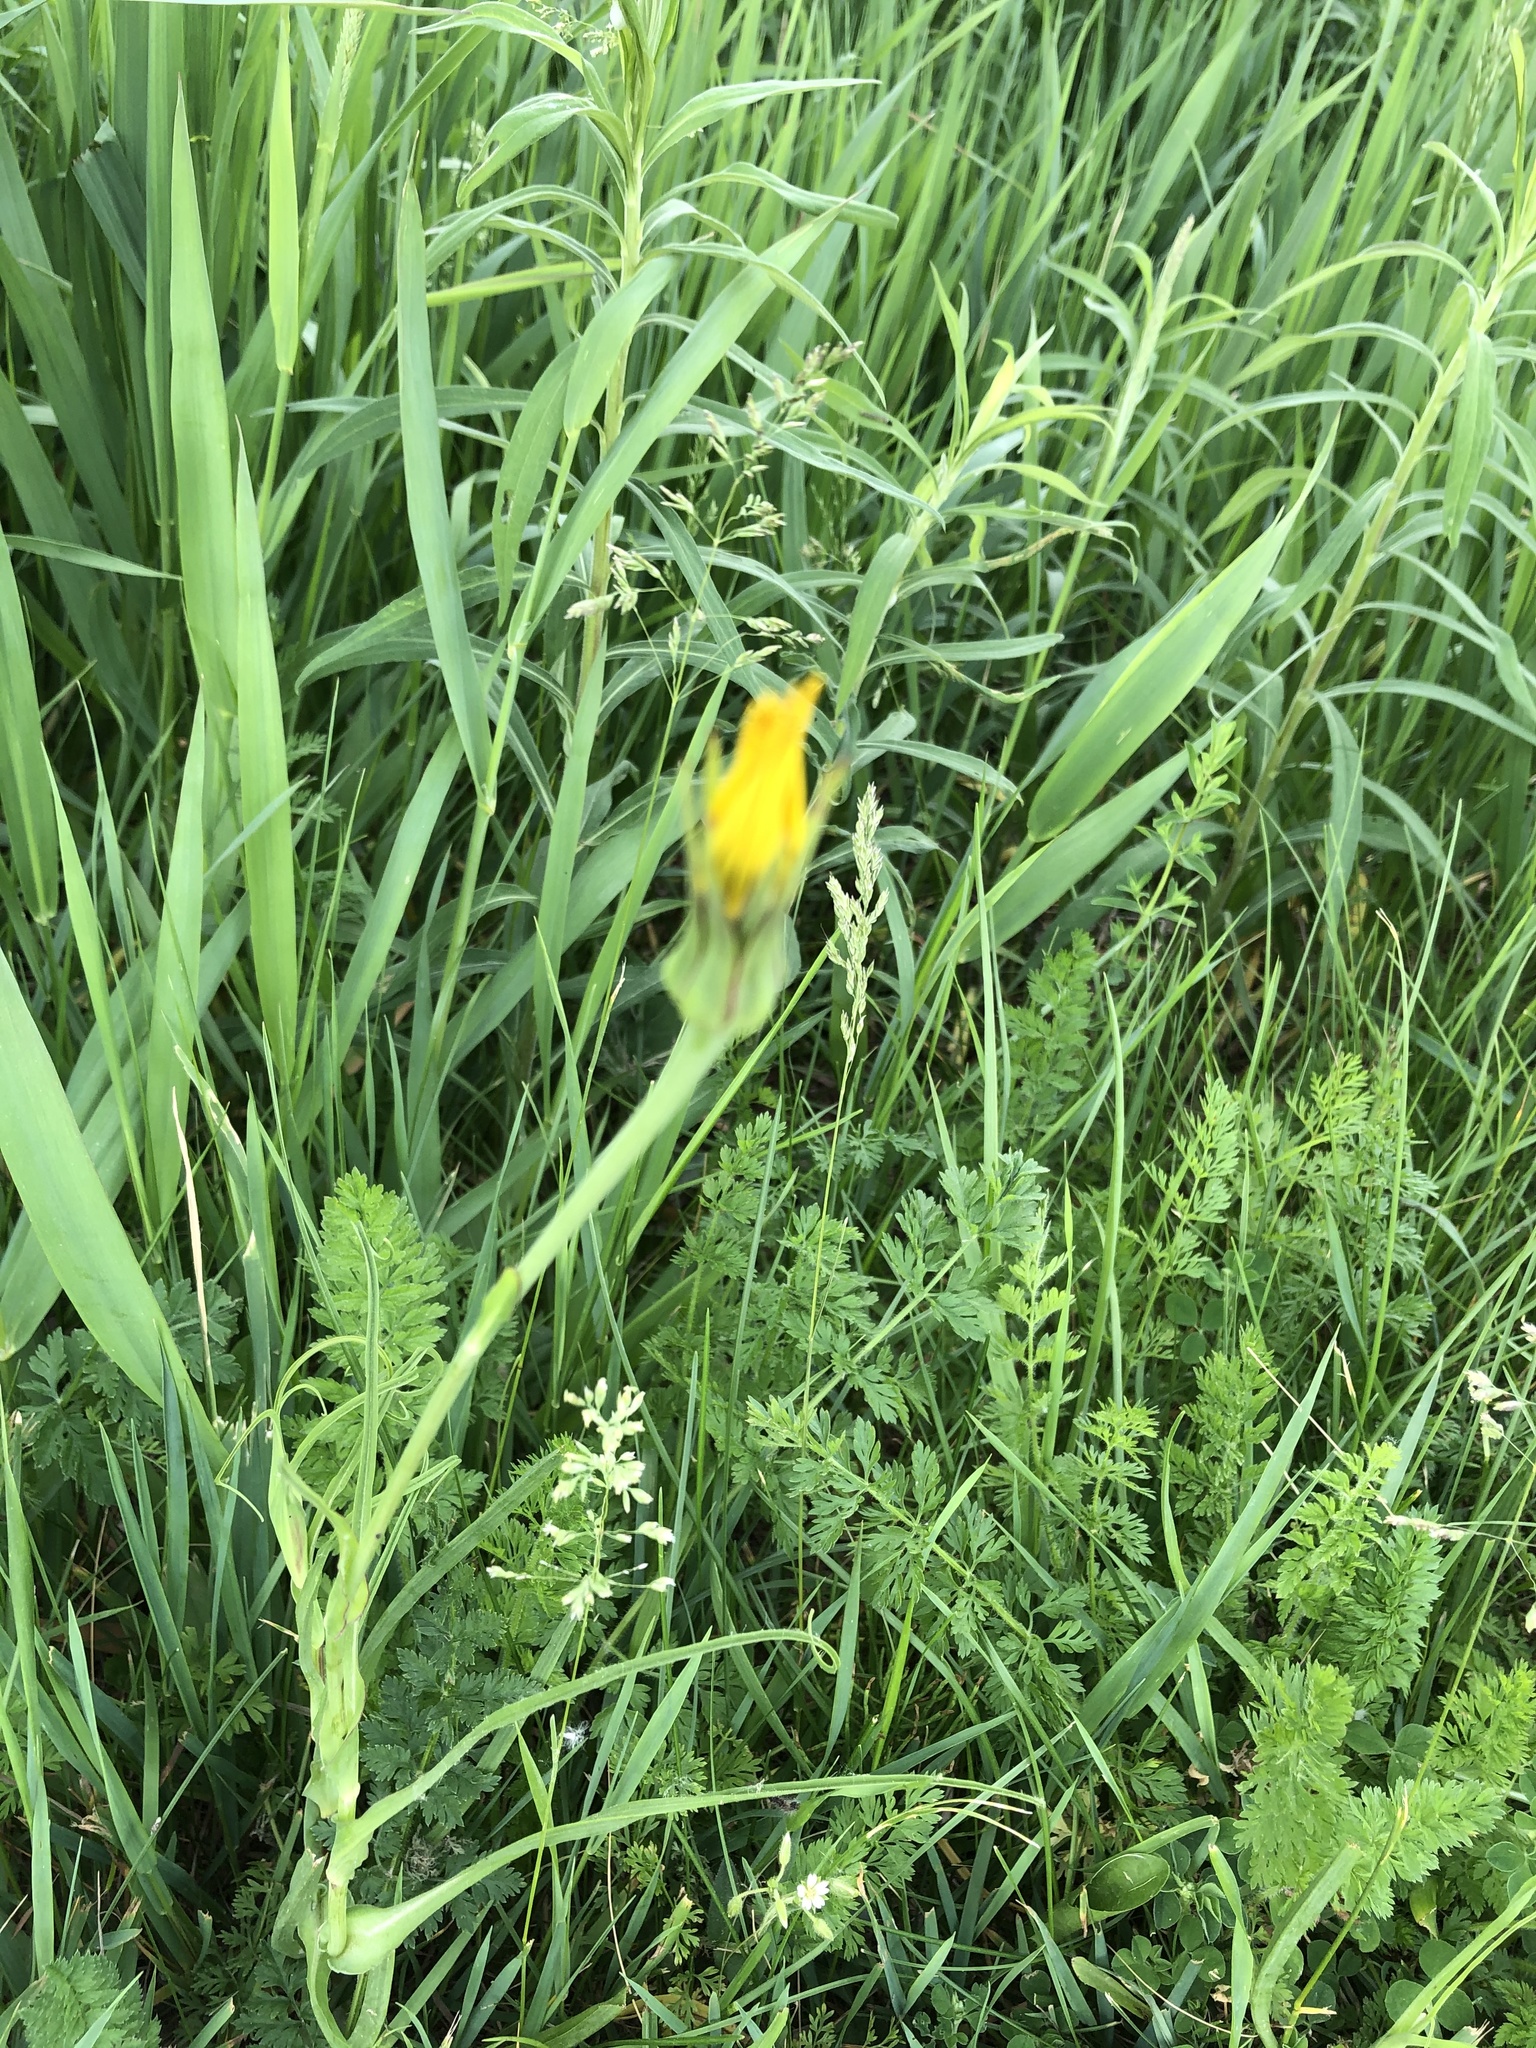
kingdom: Plantae
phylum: Tracheophyta
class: Magnoliopsida
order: Asterales
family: Asteraceae
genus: Tragopogon
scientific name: Tragopogon pratensis
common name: Goat's-beard
